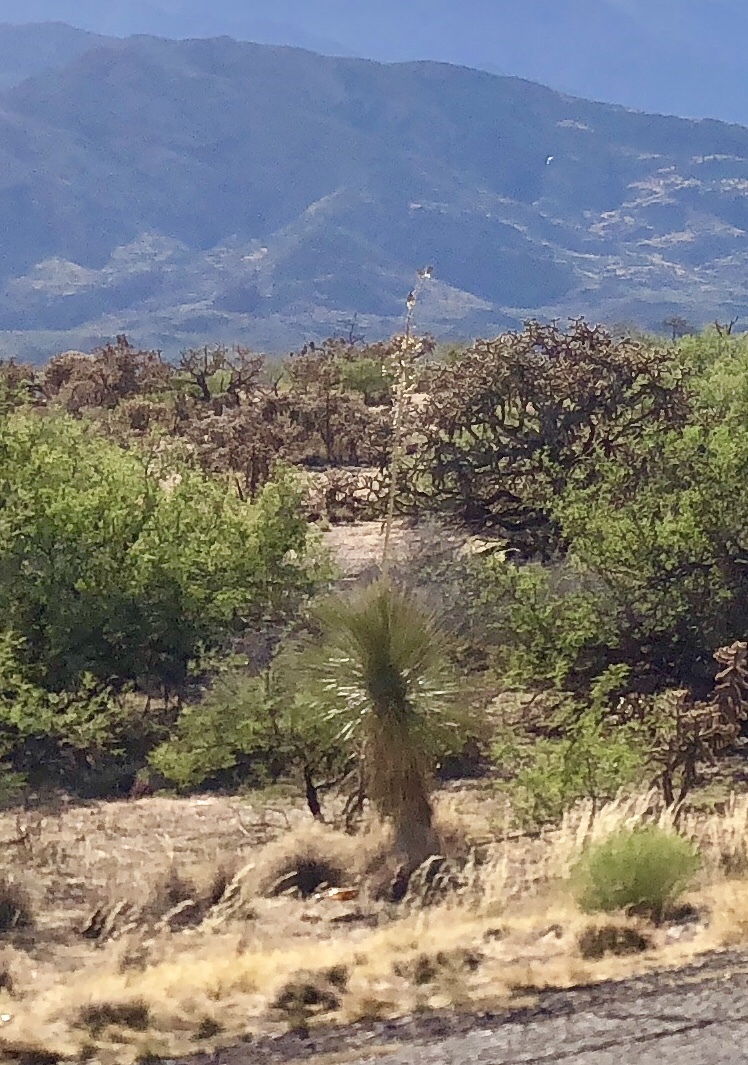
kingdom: Plantae
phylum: Tracheophyta
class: Liliopsida
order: Asparagales
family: Asparagaceae
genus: Yucca
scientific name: Yucca elata
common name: Palmella
